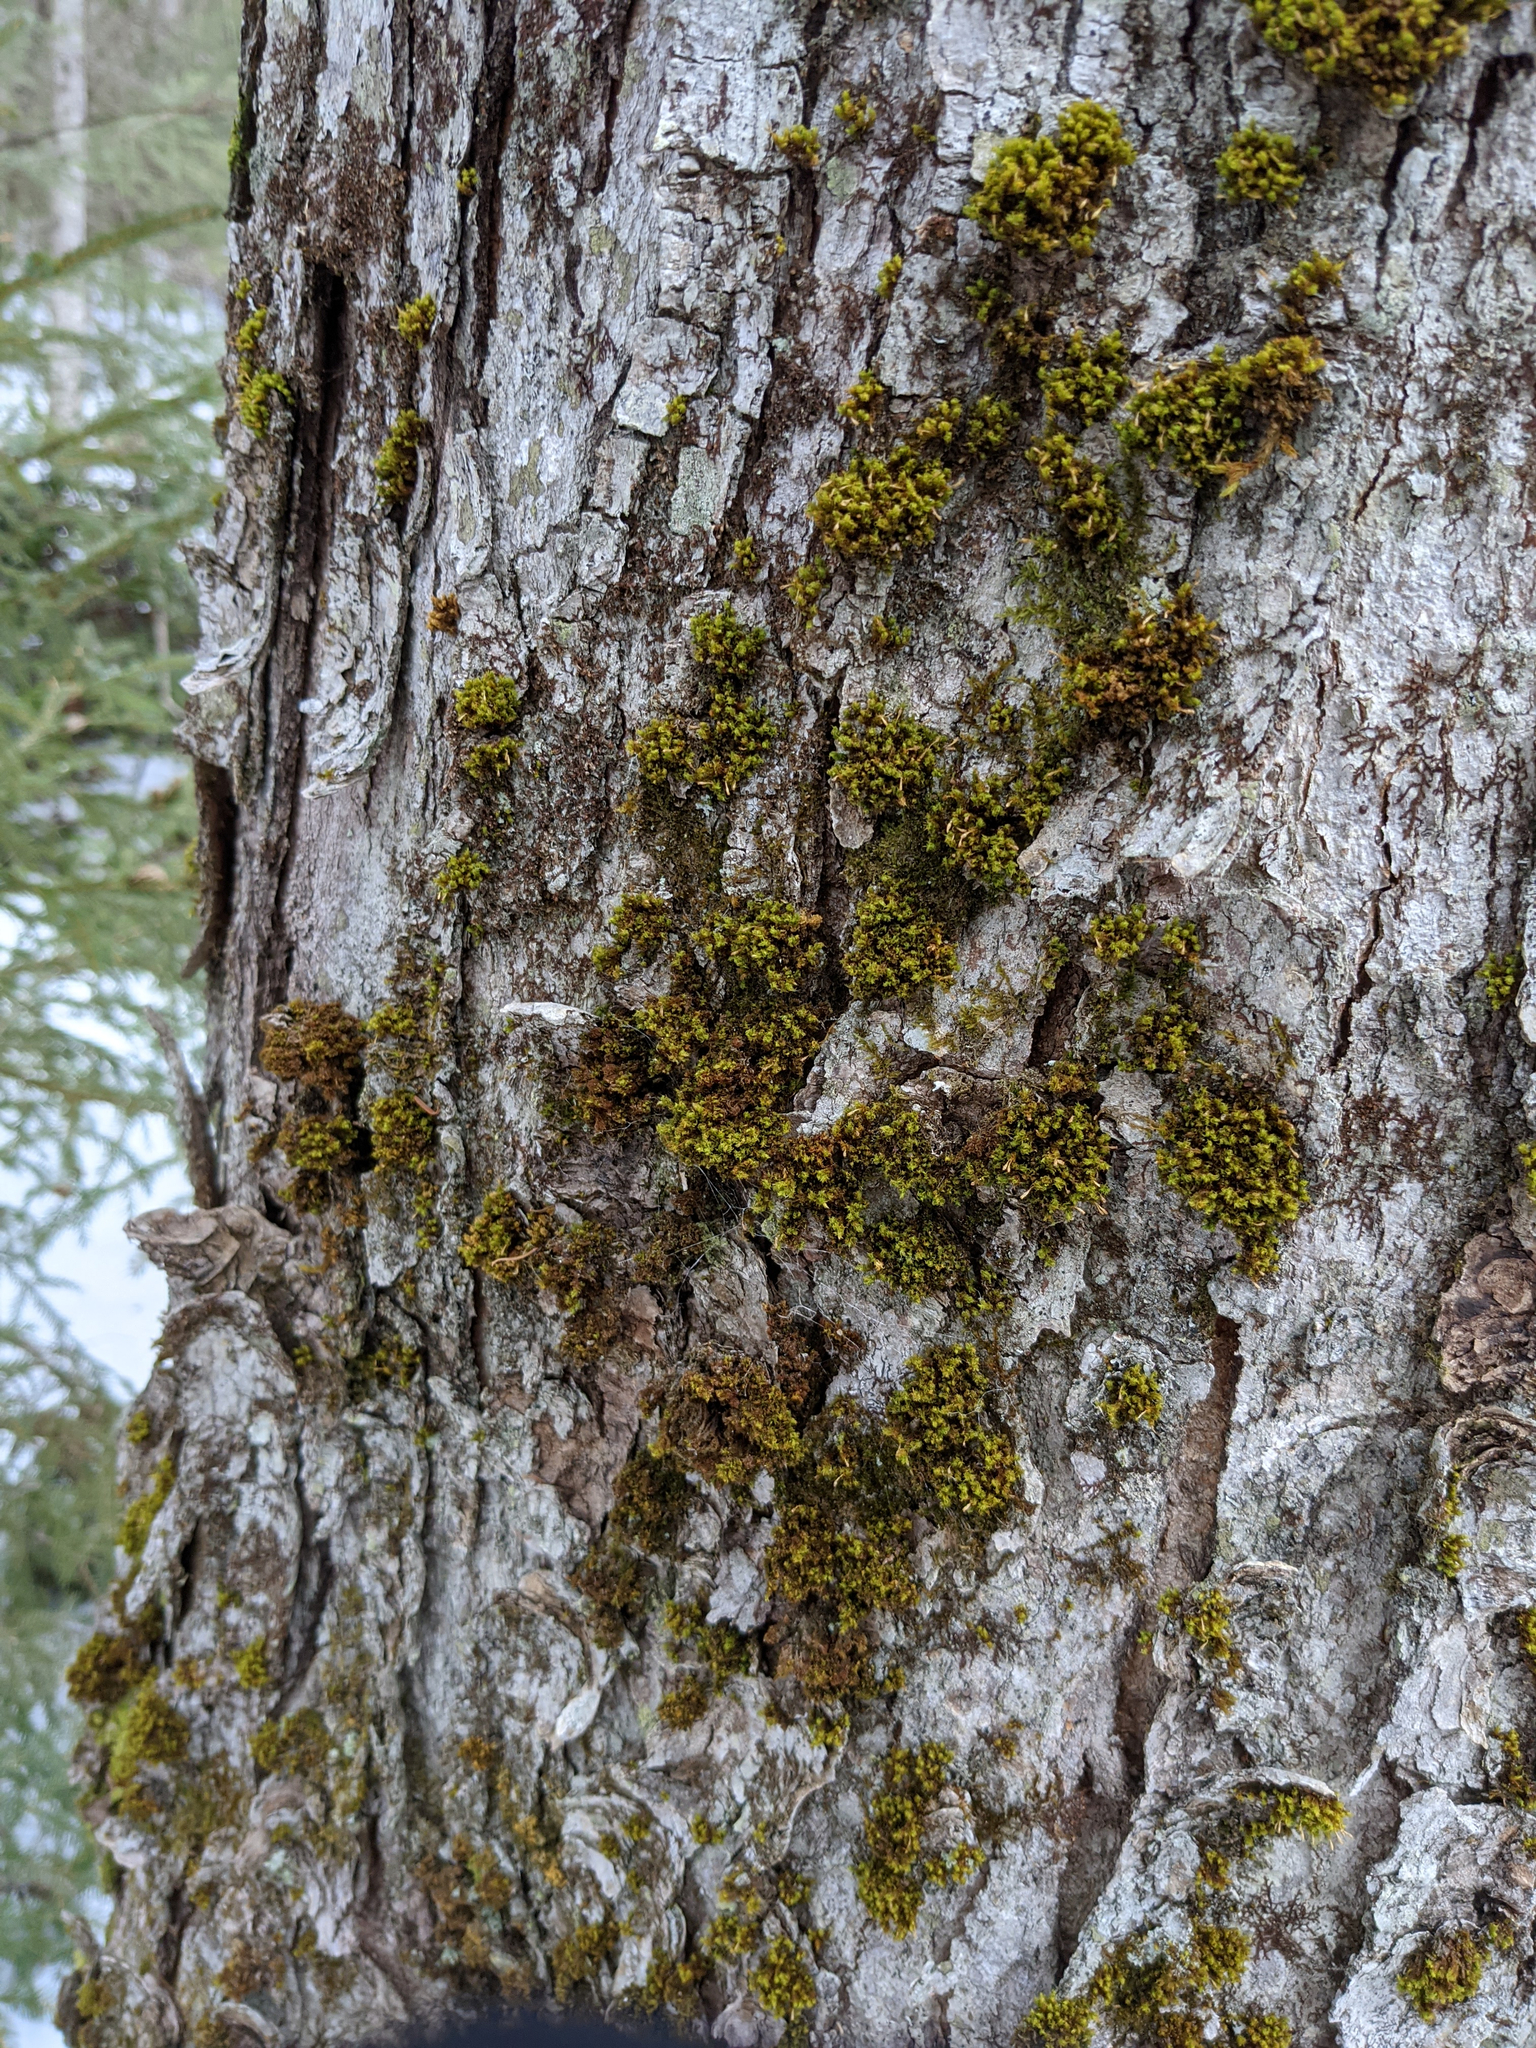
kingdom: Plantae
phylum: Bryophyta
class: Bryopsida
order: Orthotrichales
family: Orthotrichaceae
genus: Ulota
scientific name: Ulota crispa
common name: Crisped pincushion moss
